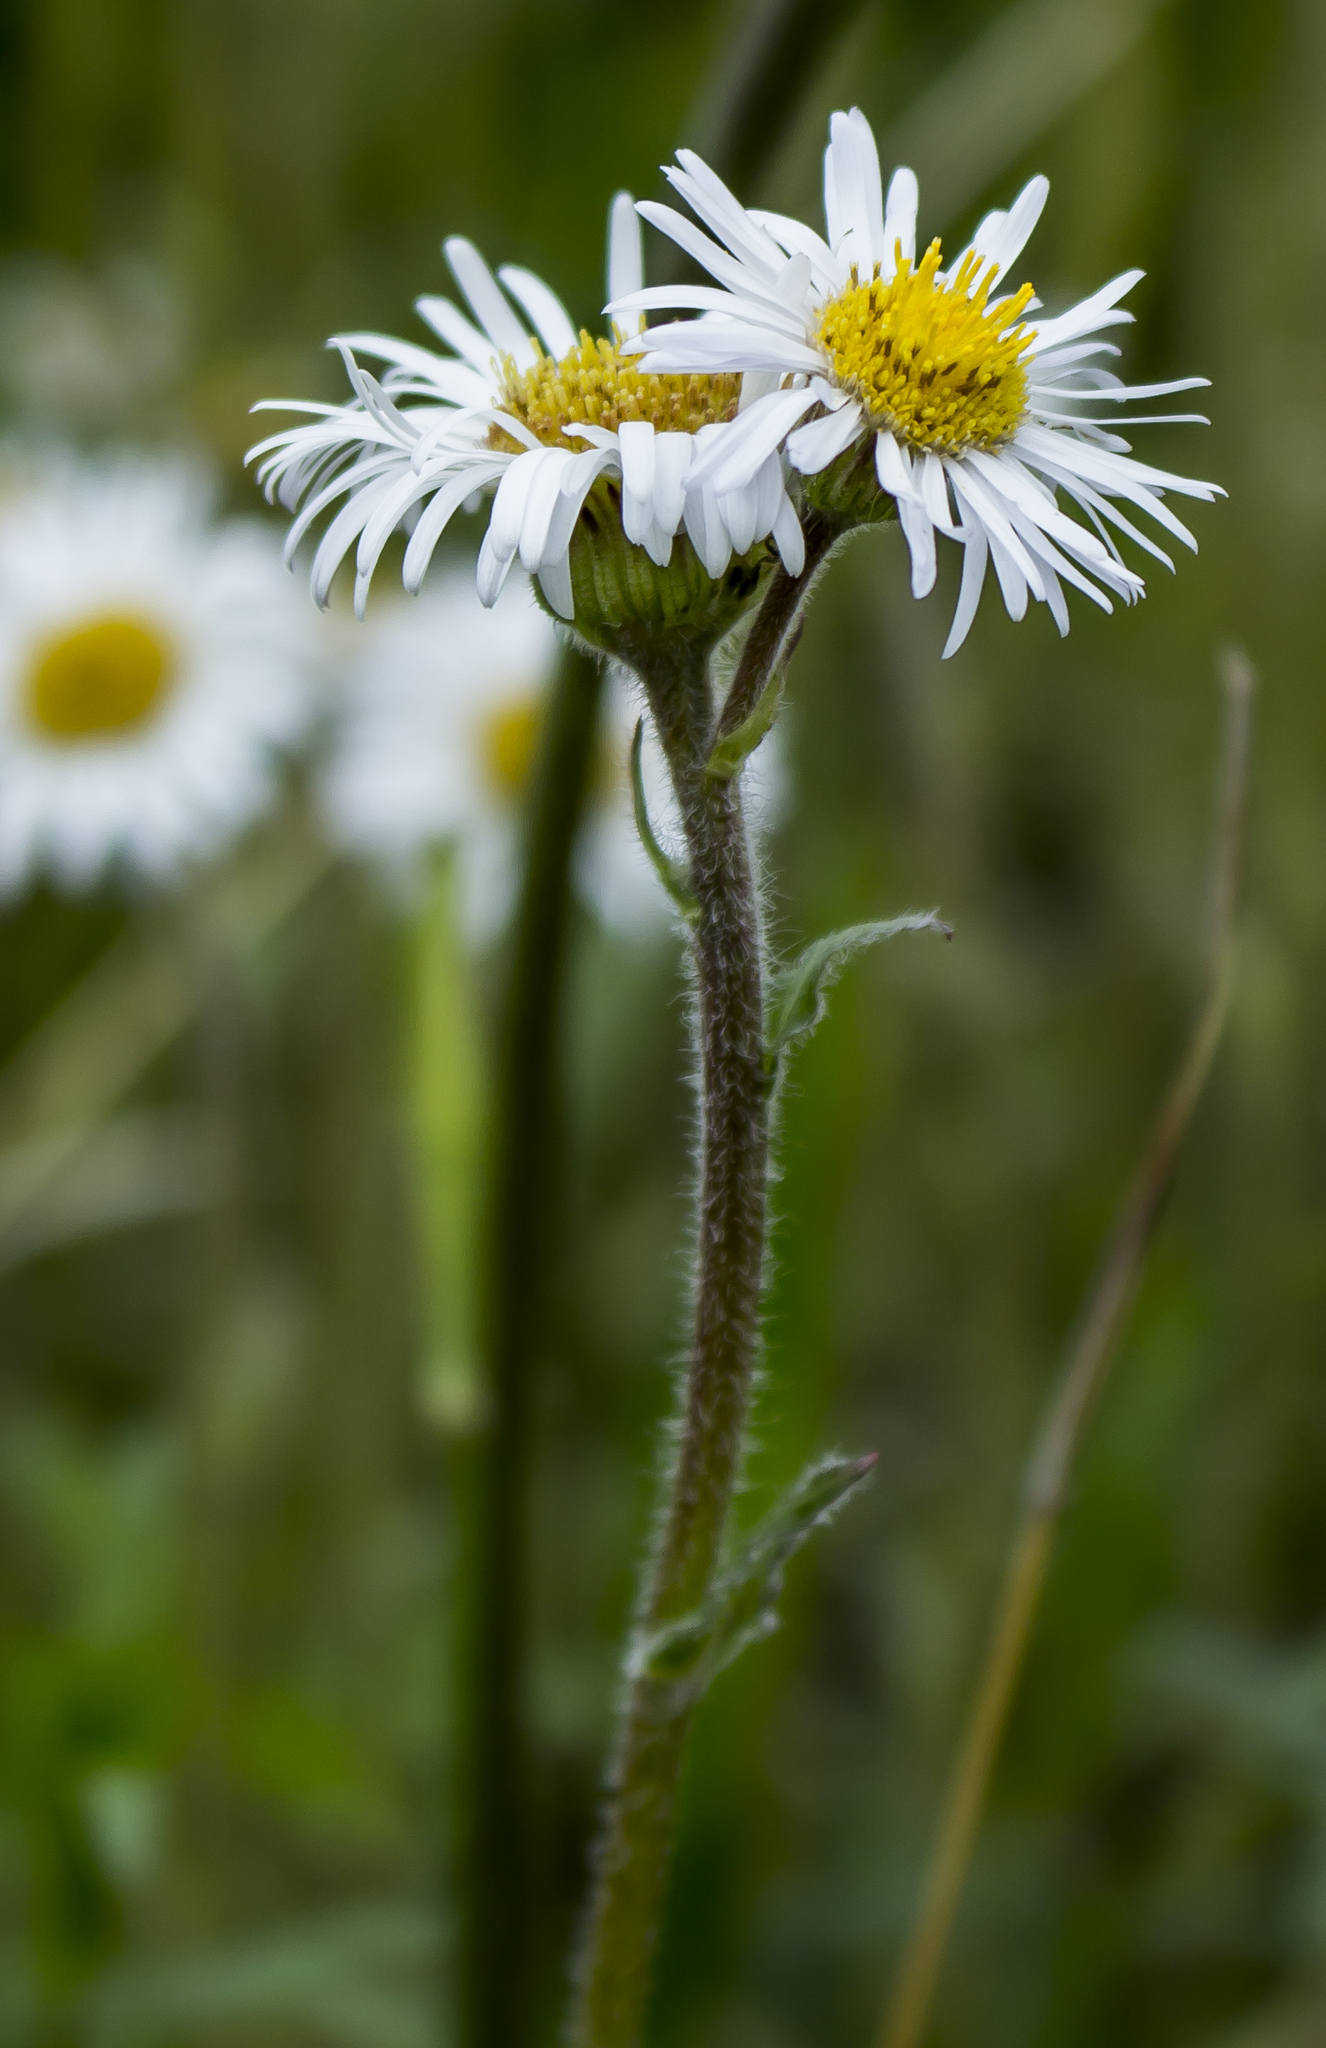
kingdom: Plantae
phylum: Tracheophyta
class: Magnoliopsida
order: Asterales
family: Asteraceae
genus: Erigeron
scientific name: Erigeron pulchellus
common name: Hairy fleabane
